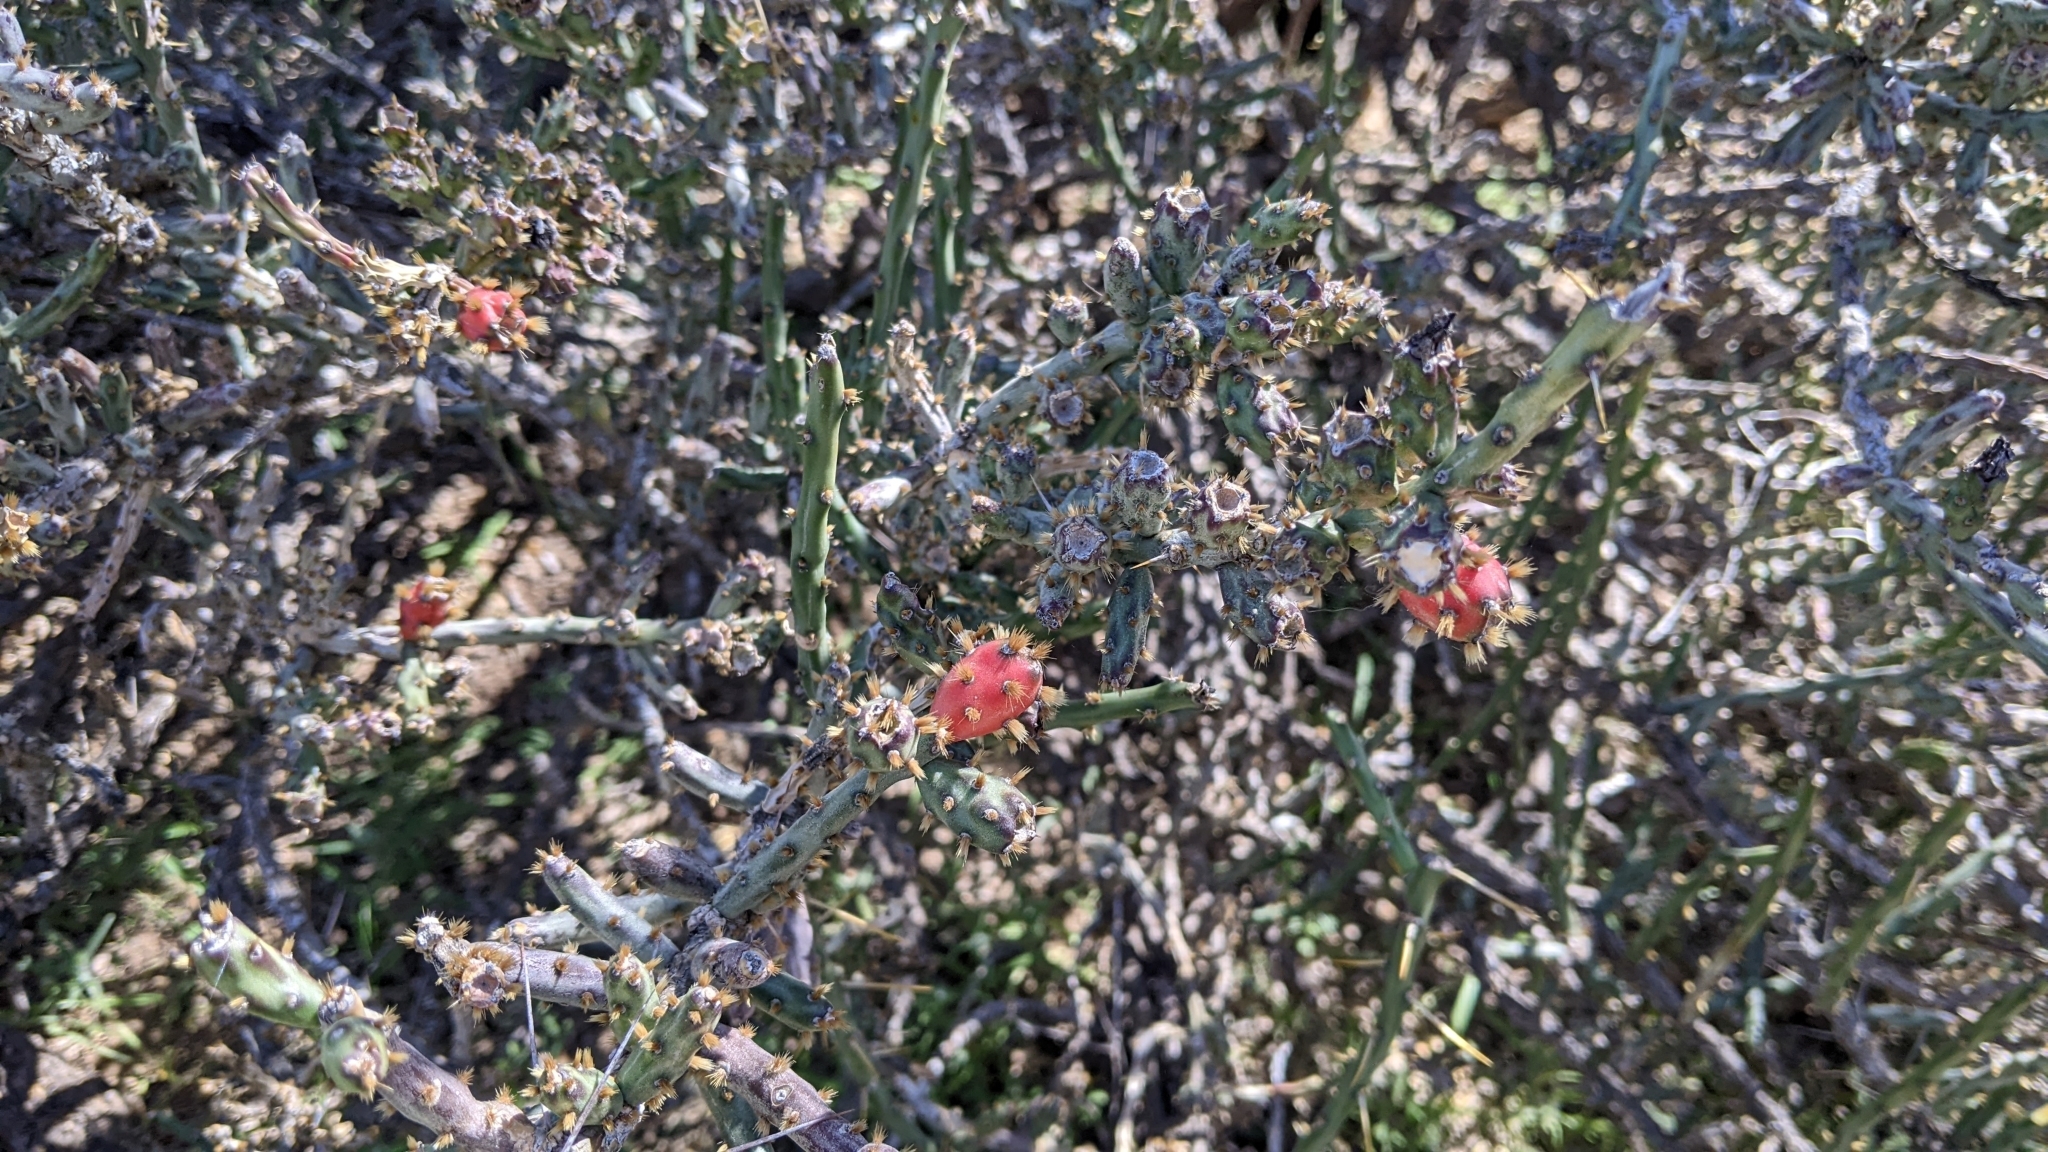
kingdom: Plantae
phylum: Tracheophyta
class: Magnoliopsida
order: Caryophyllales
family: Cactaceae
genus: Cylindropuntia
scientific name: Cylindropuntia leptocaulis
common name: Christmas cactus
